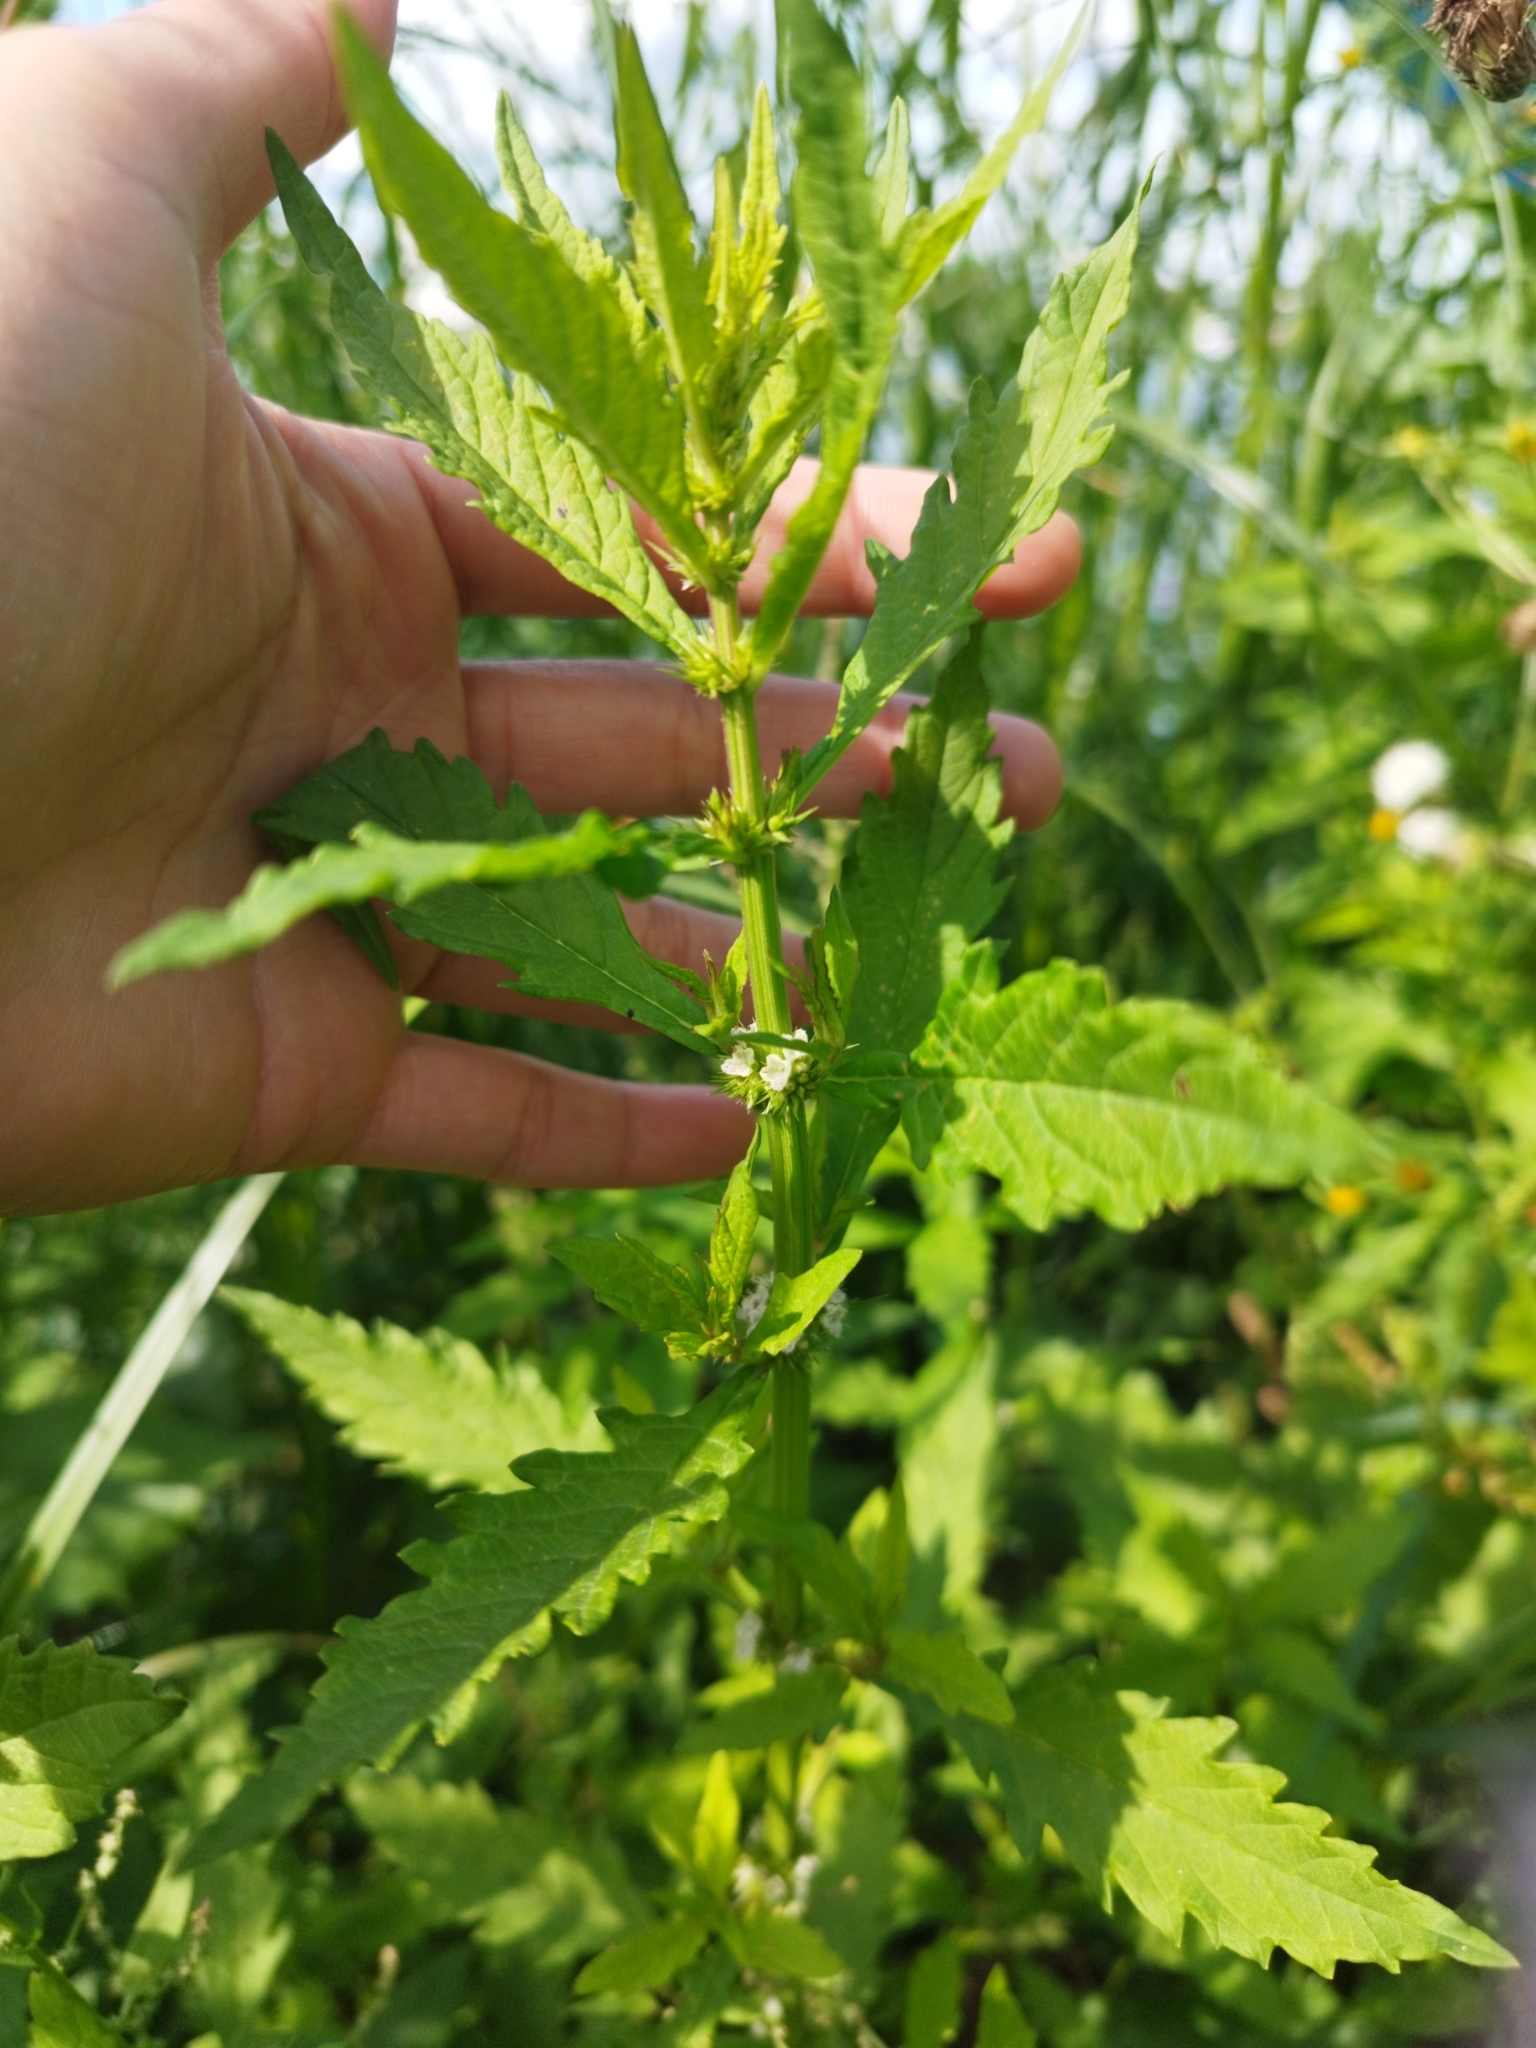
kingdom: Plantae
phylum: Tracheophyta
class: Magnoliopsida
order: Lamiales
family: Lamiaceae
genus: Lycopus
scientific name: Lycopus europaeus
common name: European bugleweed
